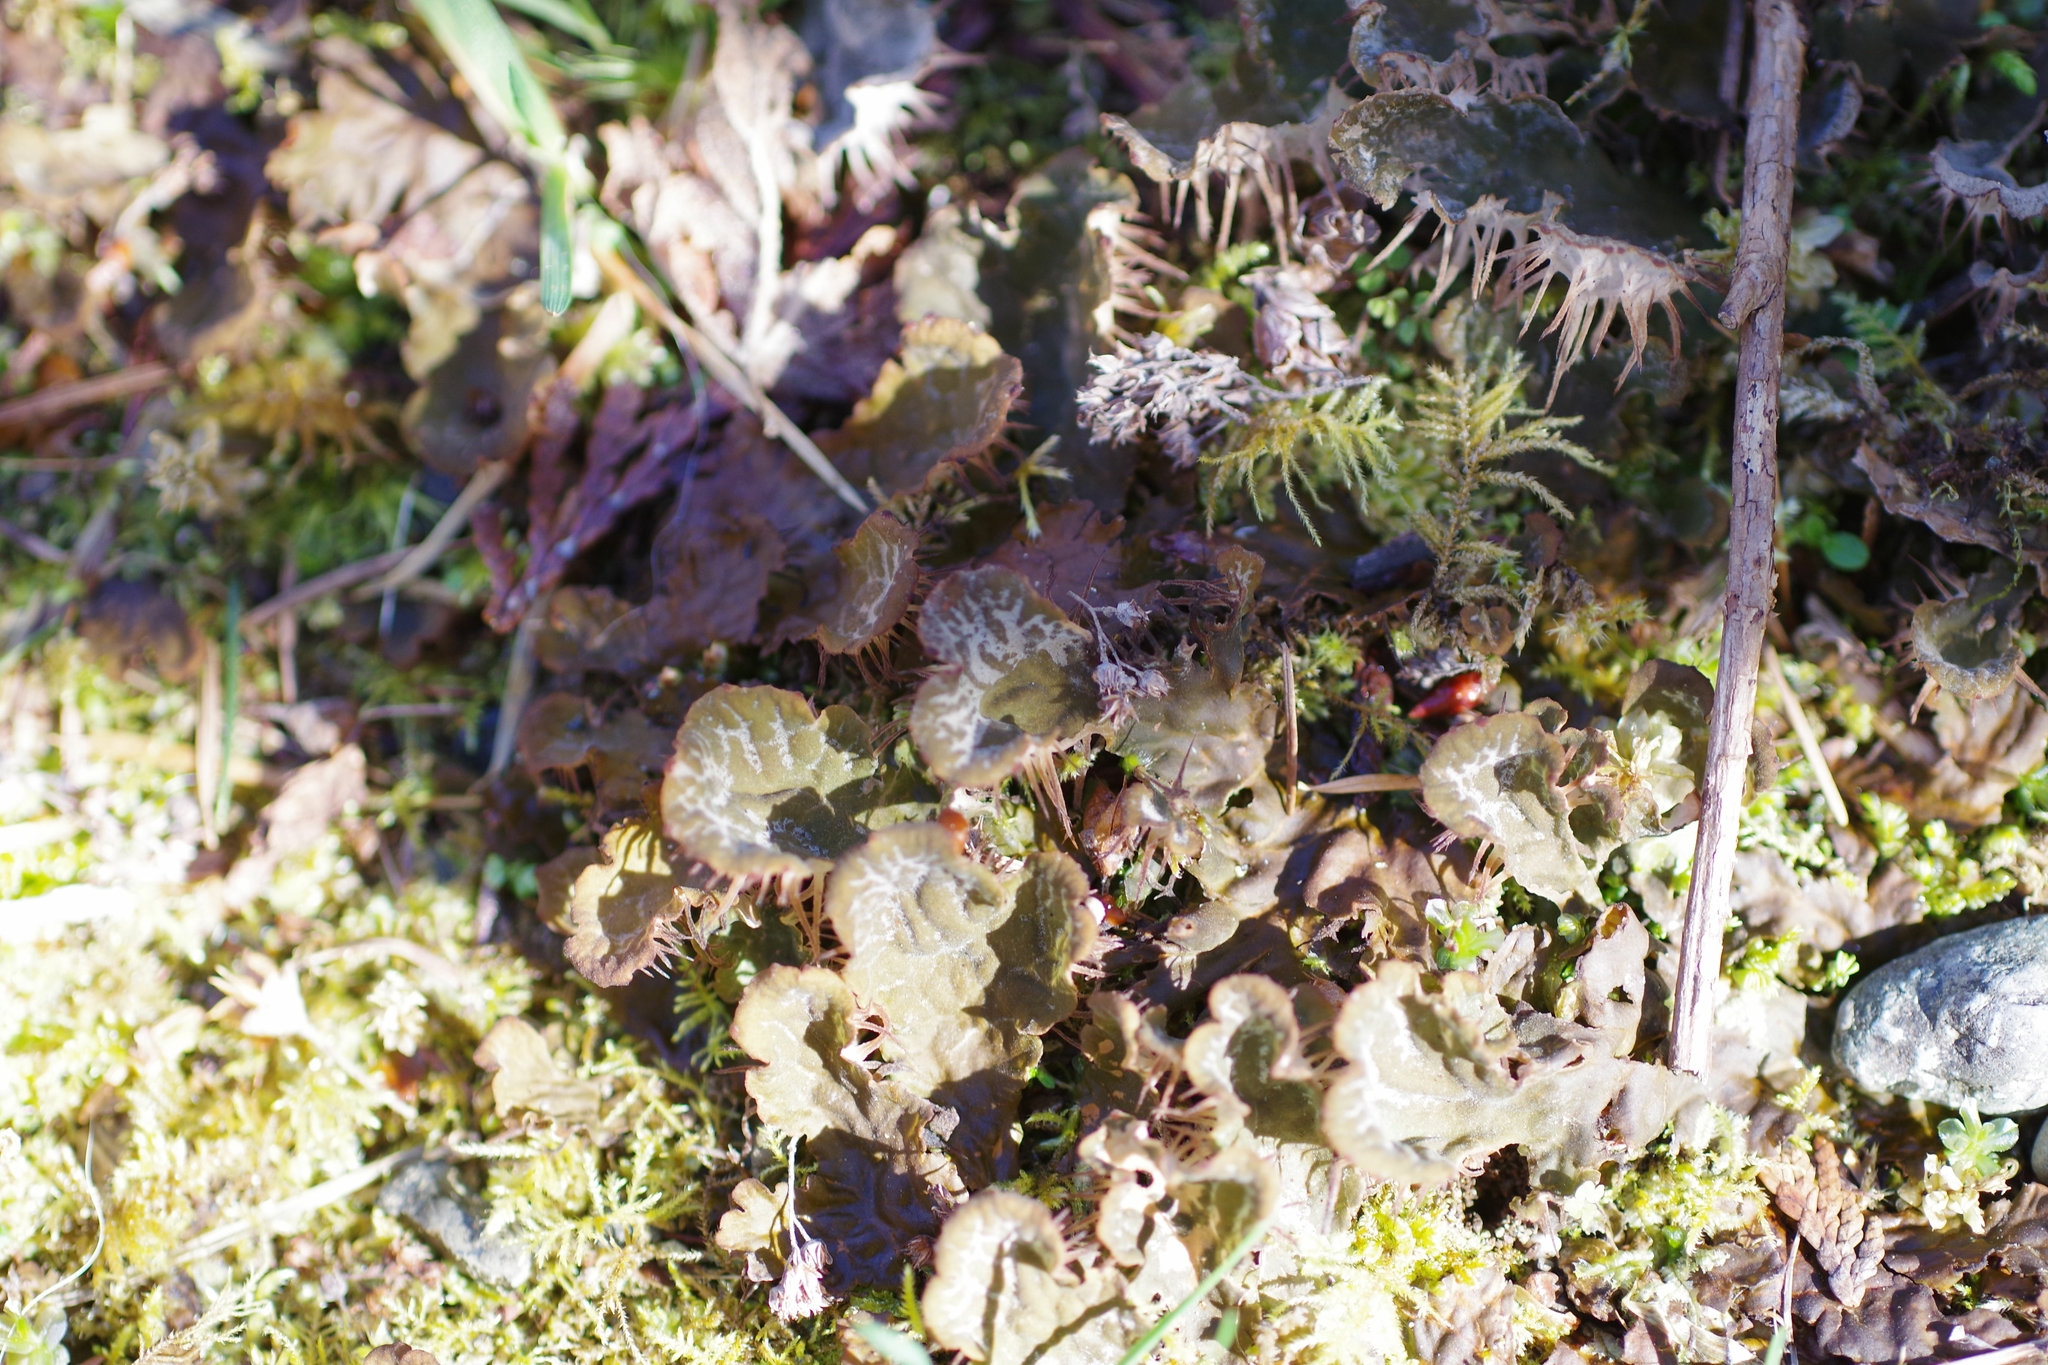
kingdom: Fungi
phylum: Ascomycota
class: Lecanoromycetes
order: Peltigerales
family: Peltigeraceae
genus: Peltigera
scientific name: Peltigera membranacea
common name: Membranous pelt lichen
